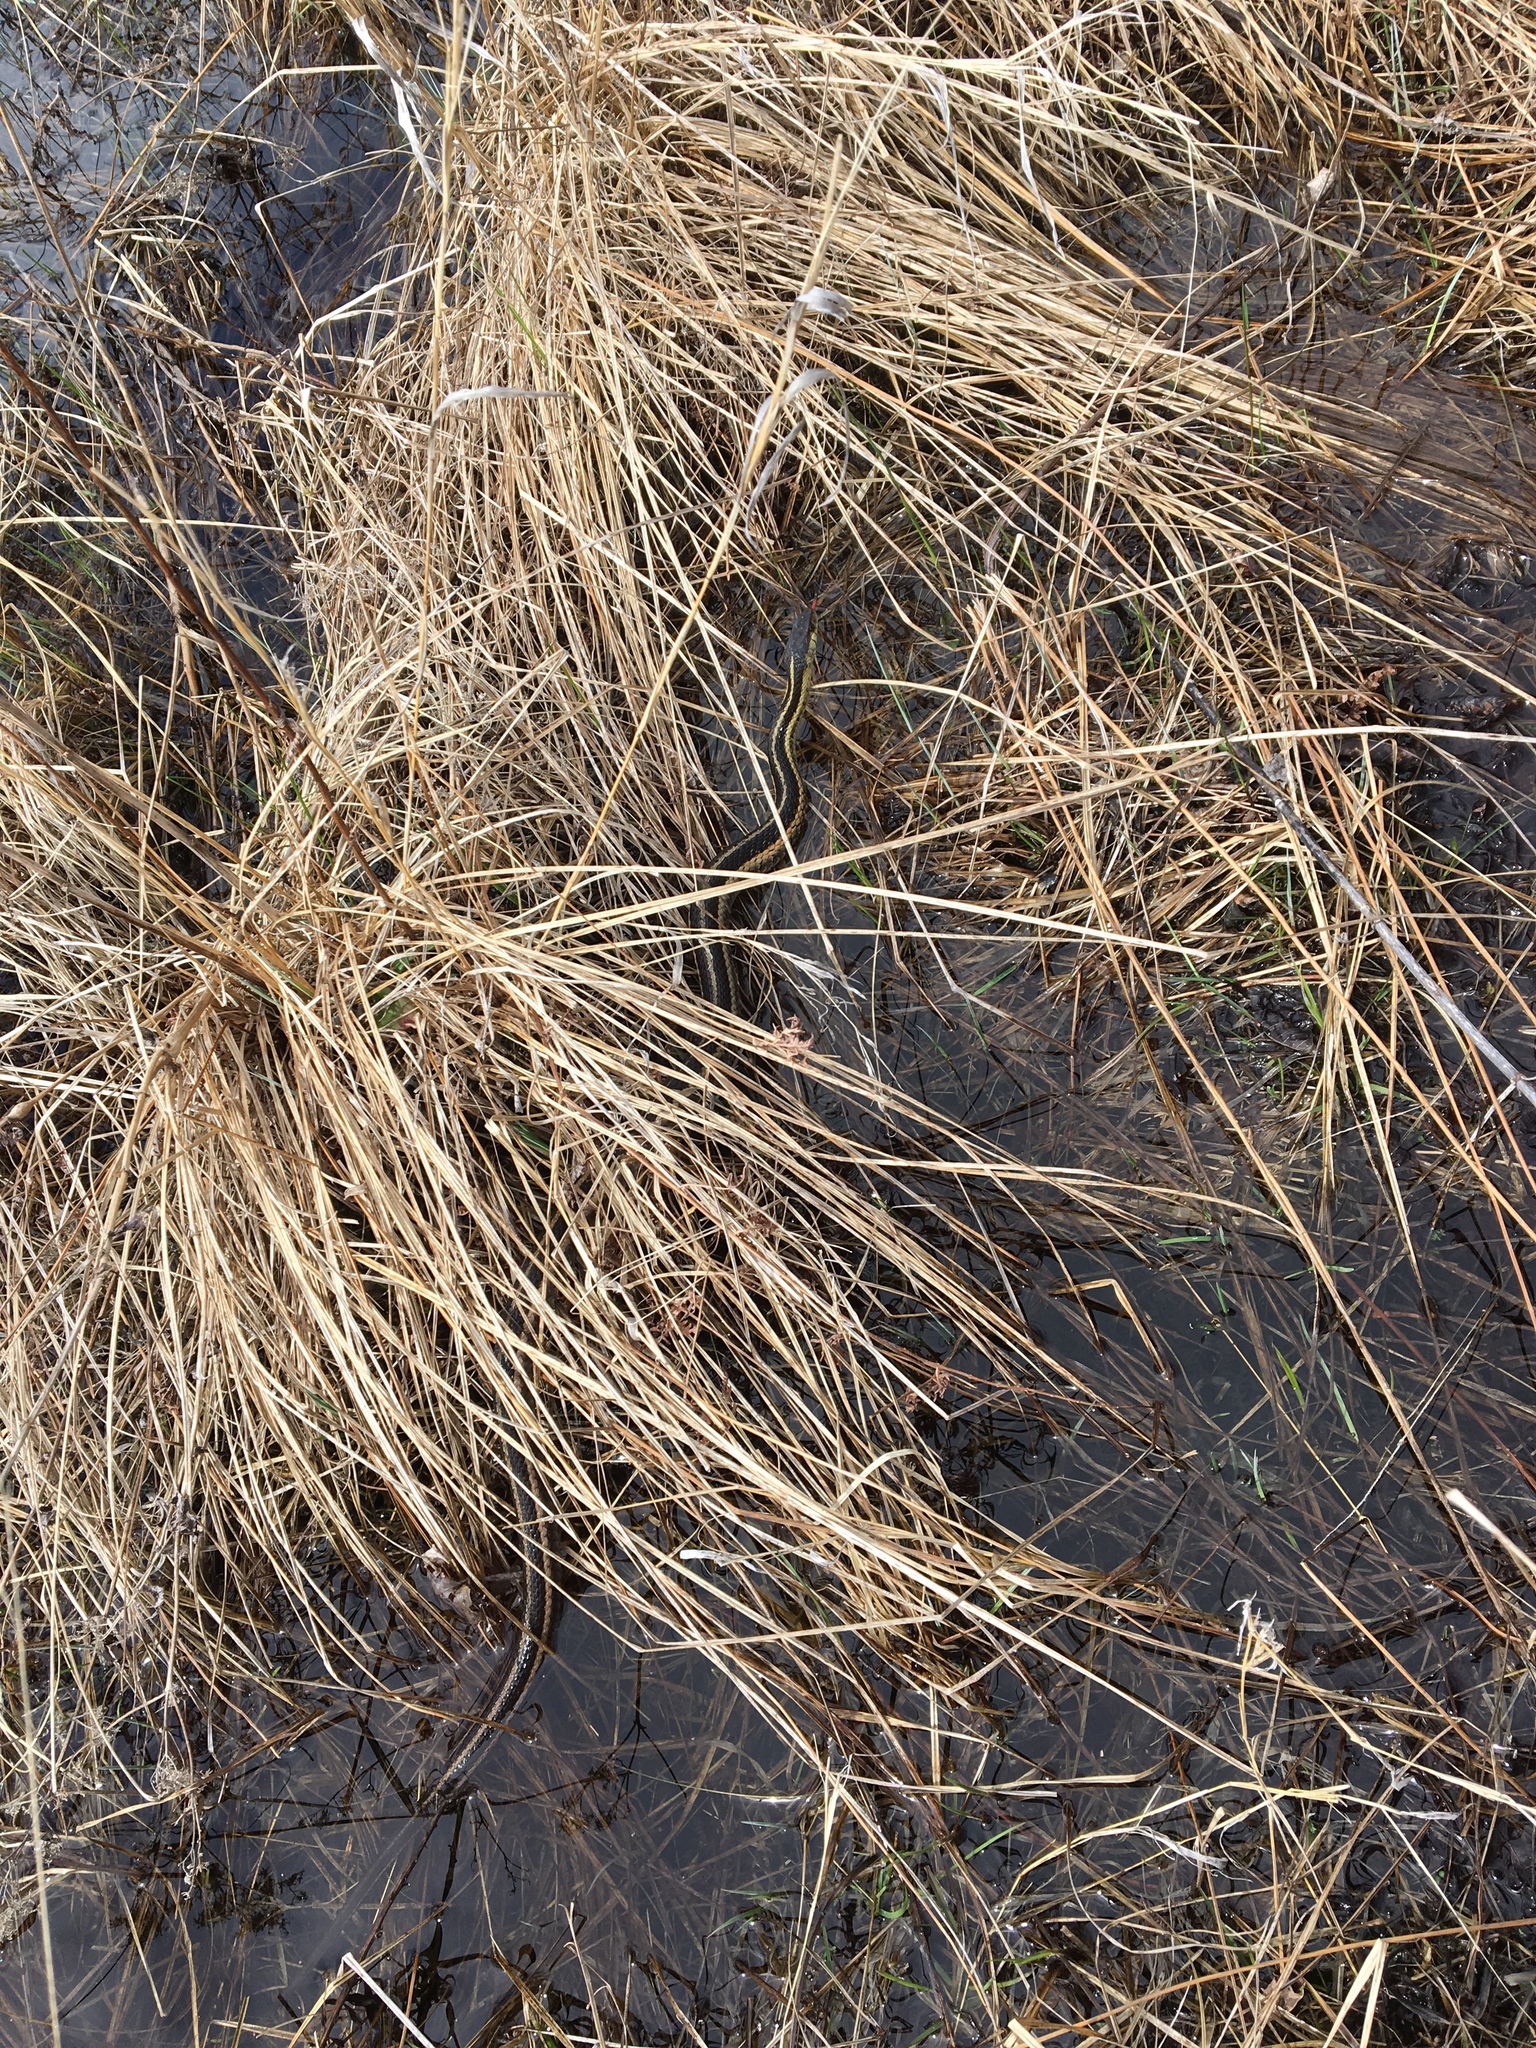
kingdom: Animalia
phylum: Chordata
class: Squamata
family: Colubridae
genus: Thamnophis
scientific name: Thamnophis sirtalis
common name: Common garter snake
